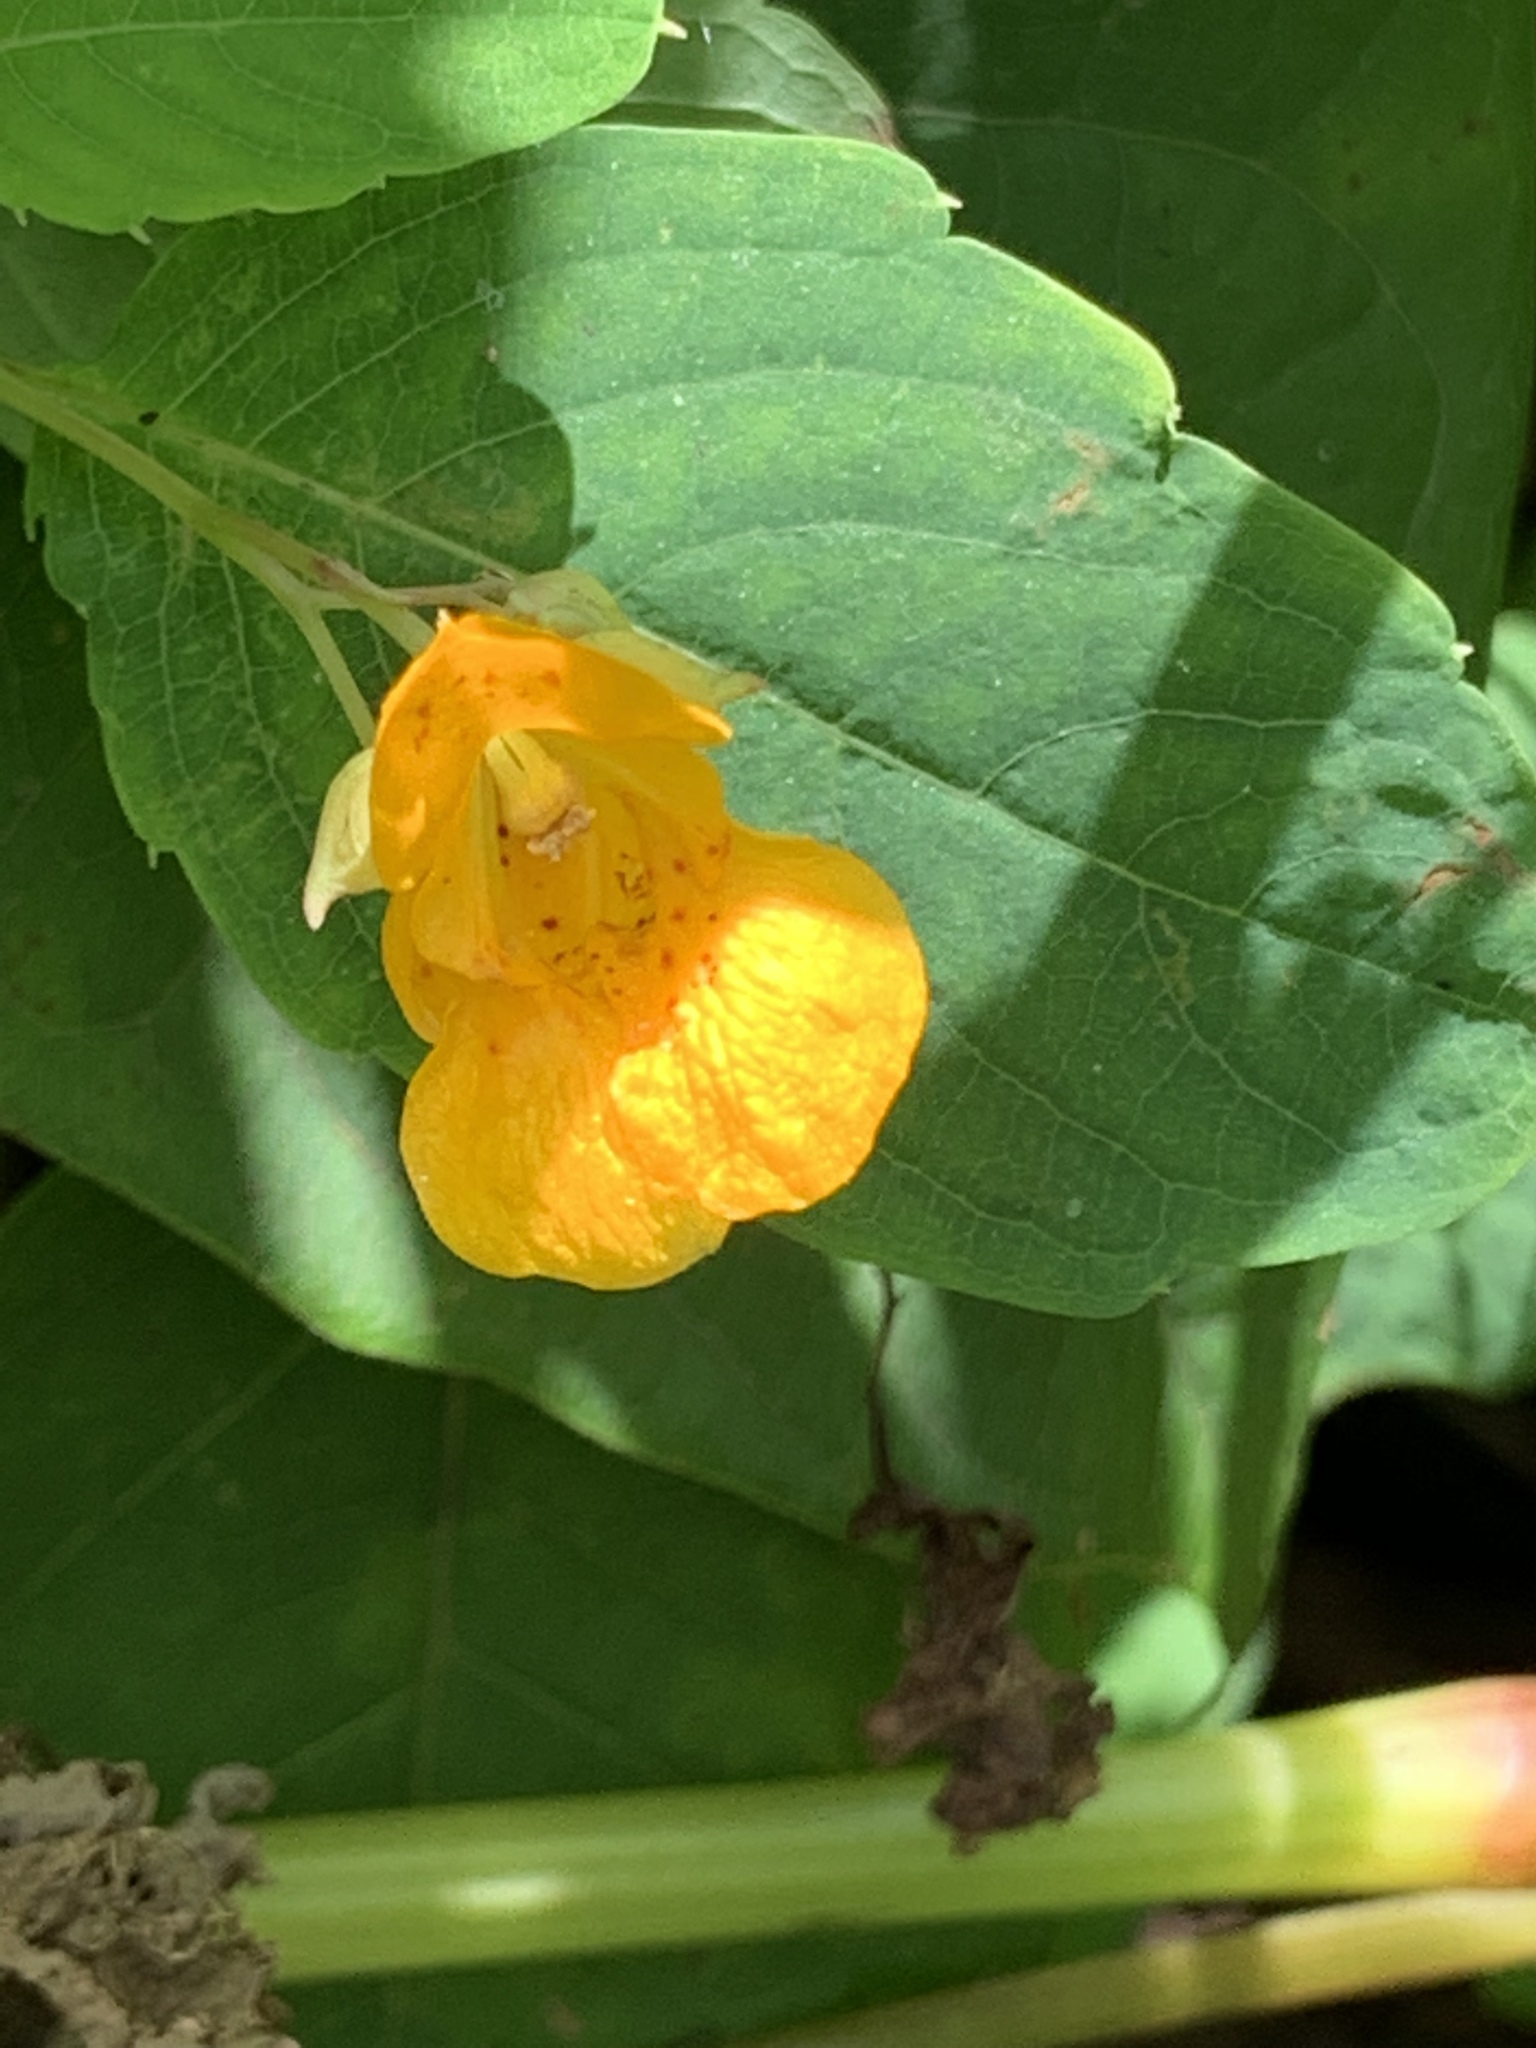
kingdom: Plantae
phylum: Tracheophyta
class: Magnoliopsida
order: Ericales
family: Balsaminaceae
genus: Impatiens
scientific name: Impatiens capensis
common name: Orange balsam
